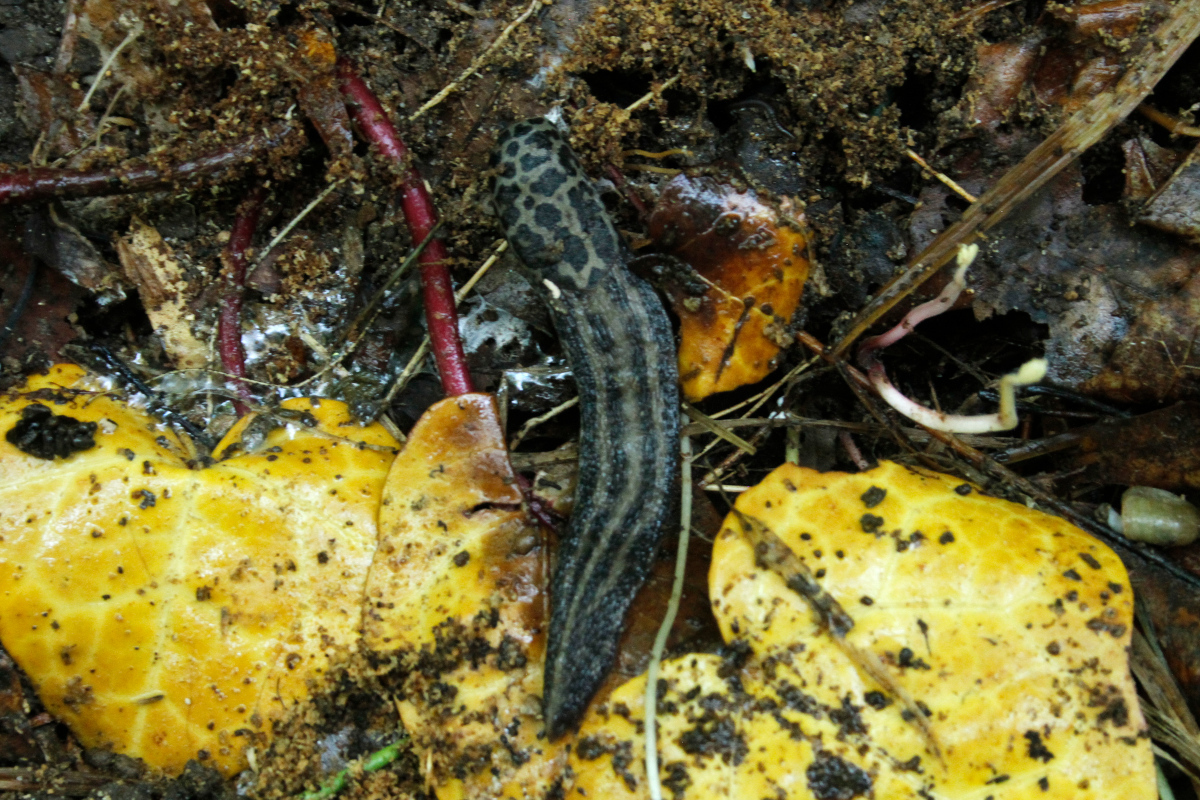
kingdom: Animalia
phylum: Mollusca
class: Gastropoda
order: Stylommatophora
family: Limacidae
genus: Limax
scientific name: Limax maximus
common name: Great grey slug
